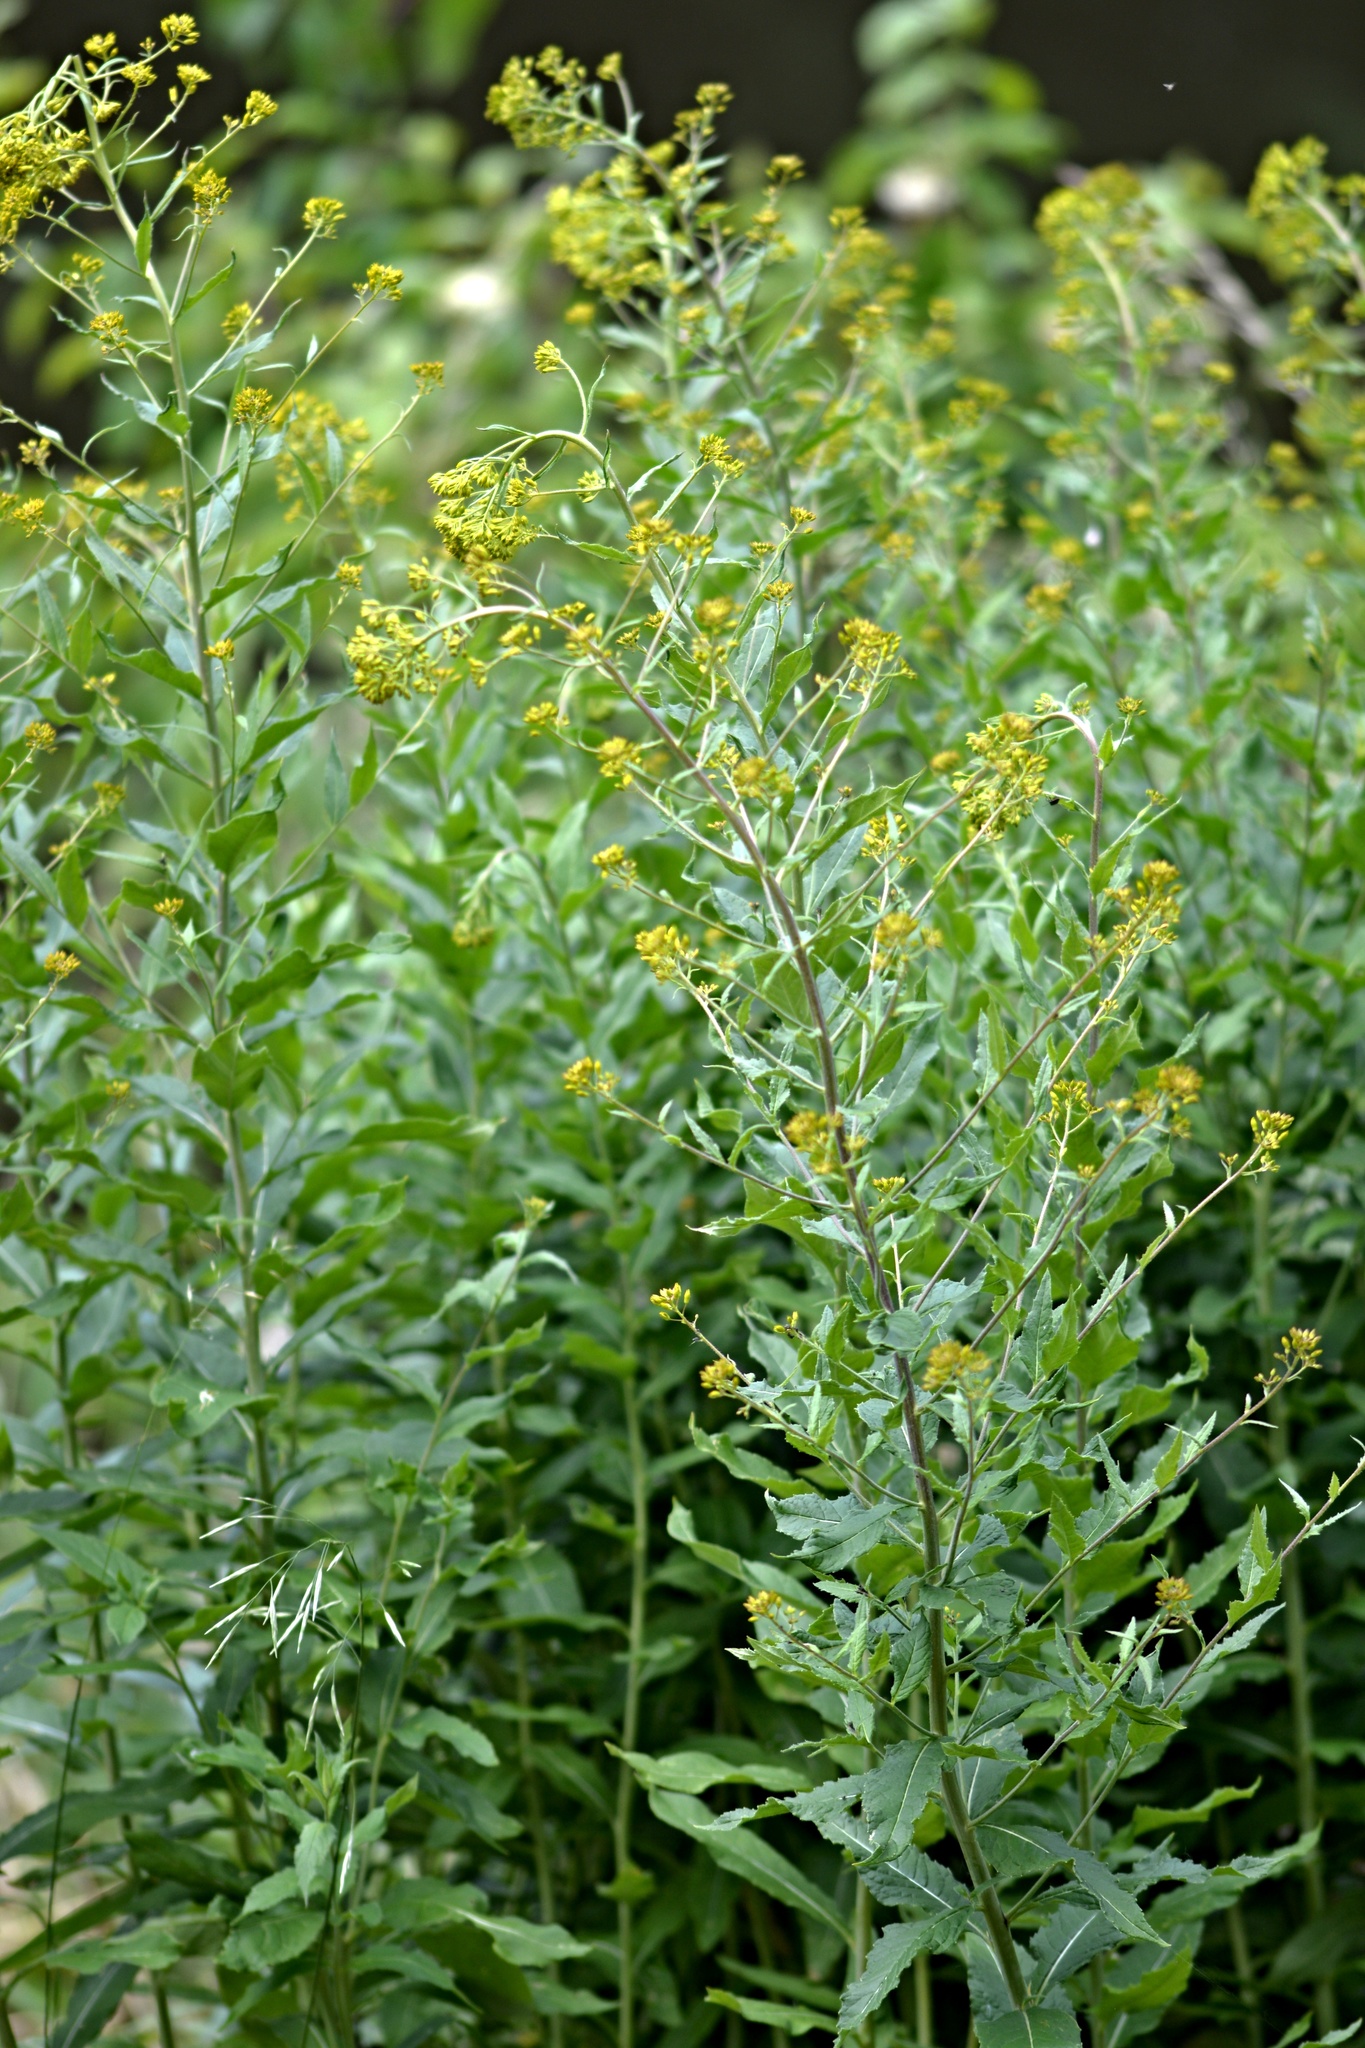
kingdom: Plantae
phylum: Tracheophyta
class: Magnoliopsida
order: Brassicales
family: Brassicaceae
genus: Sisymbrium
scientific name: Sisymbrium strictissimum
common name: Perennial rocket
